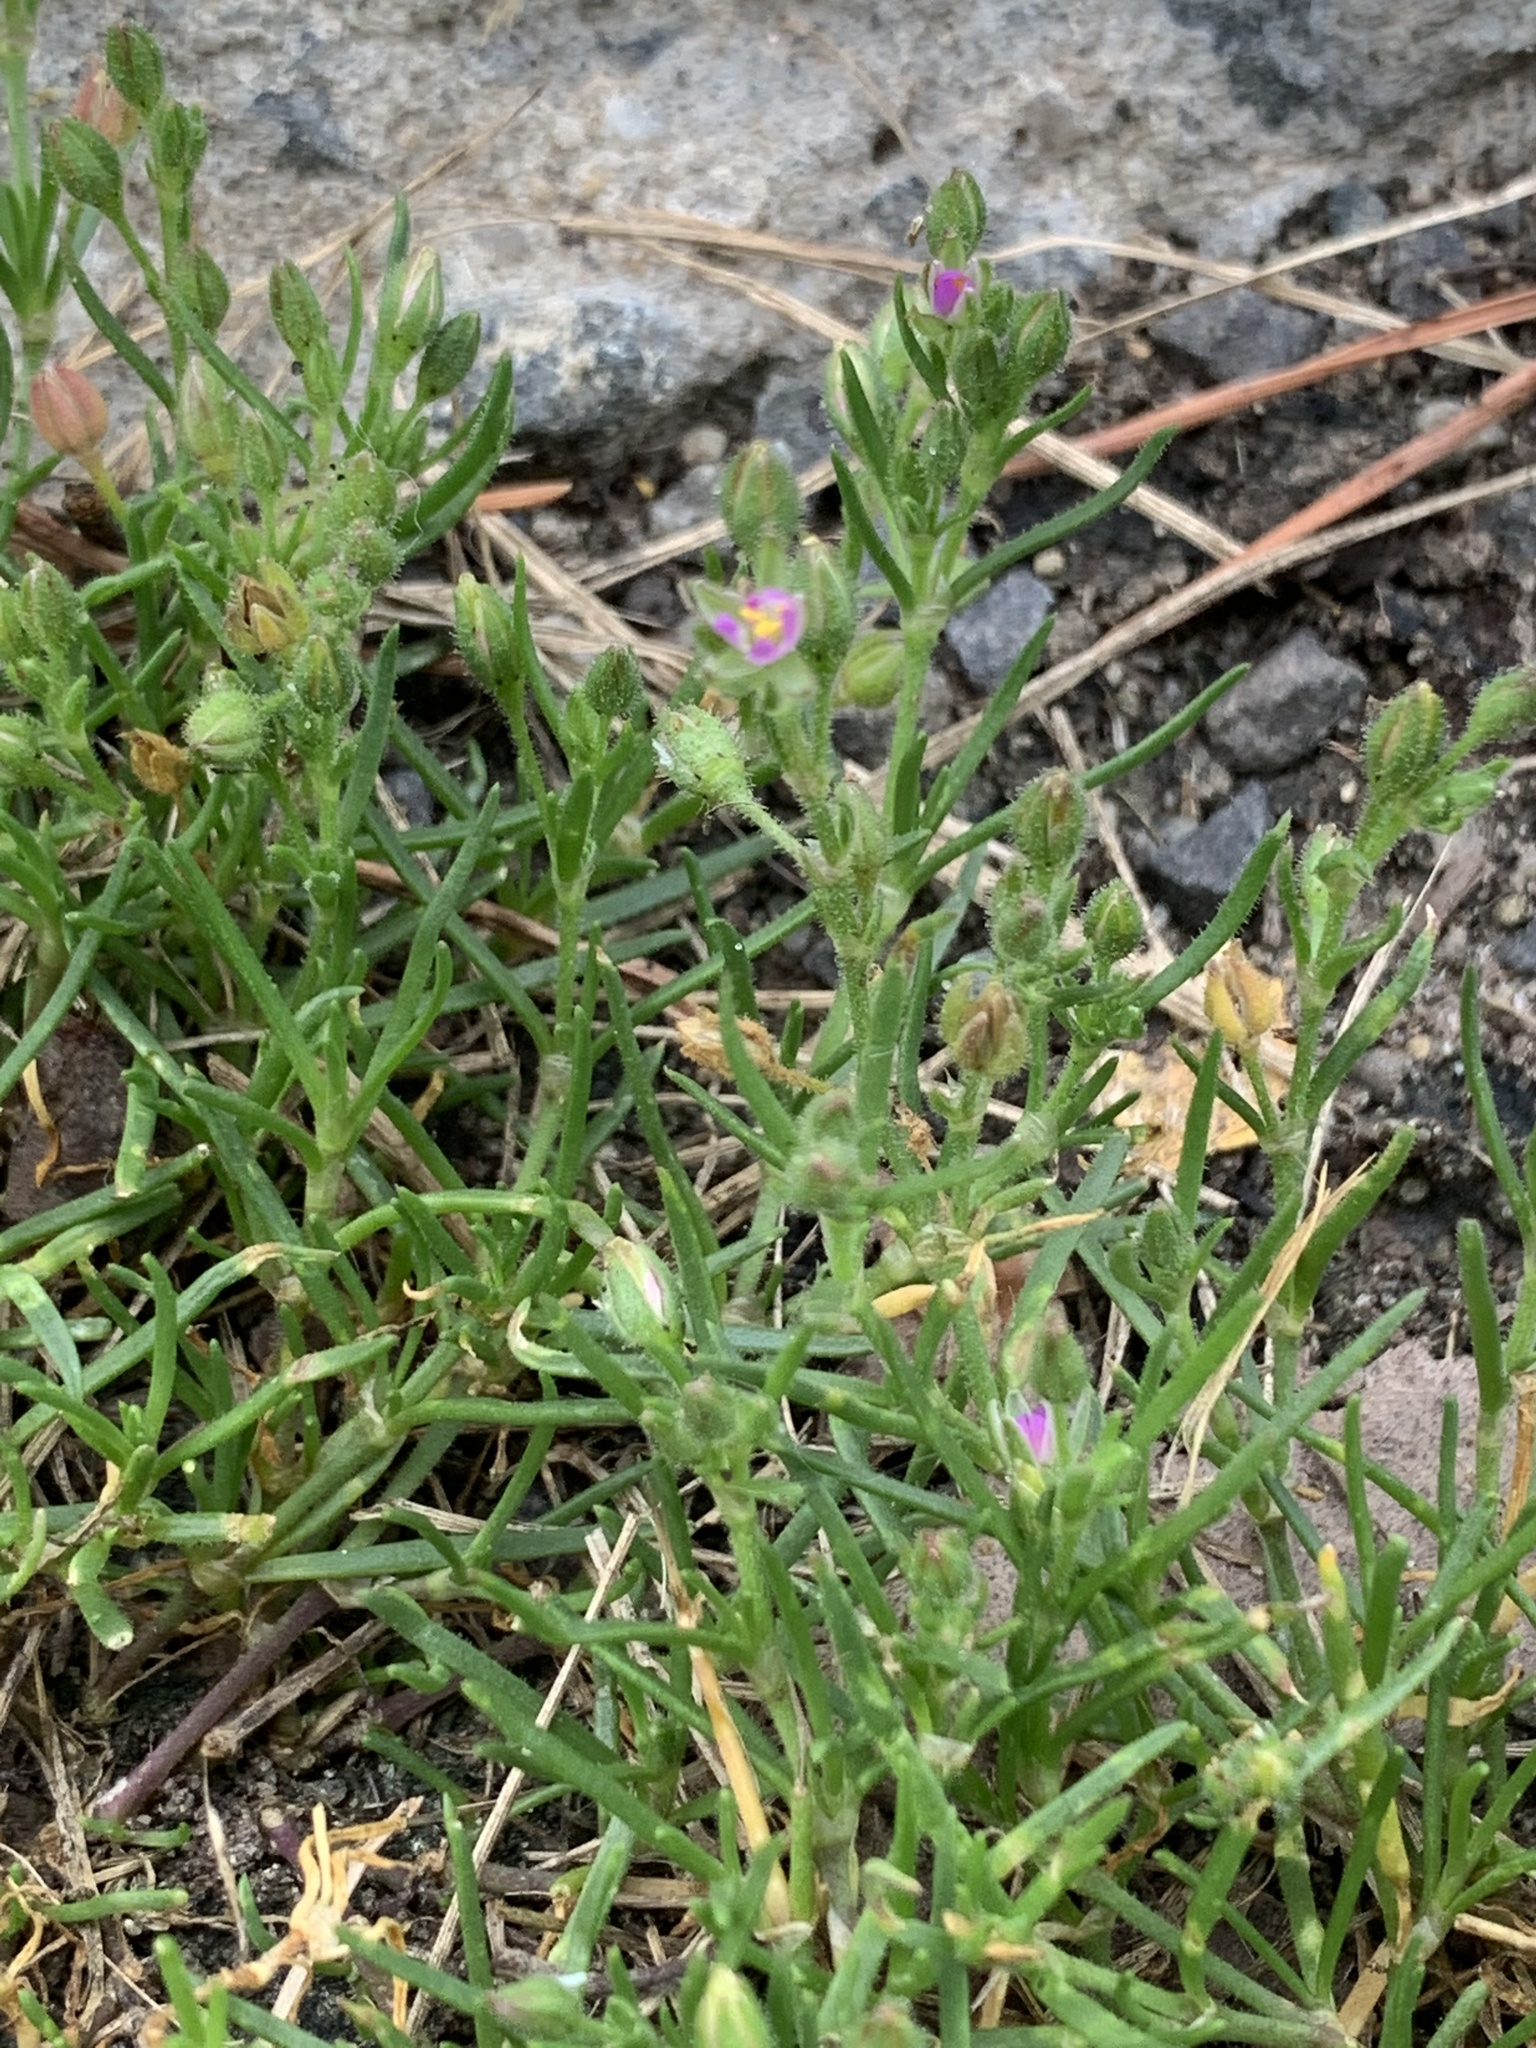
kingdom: Plantae
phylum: Tracheophyta
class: Magnoliopsida
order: Caryophyllales
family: Caryophyllaceae
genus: Spergularia
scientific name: Spergularia marina
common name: Lesser sea-spurrey
